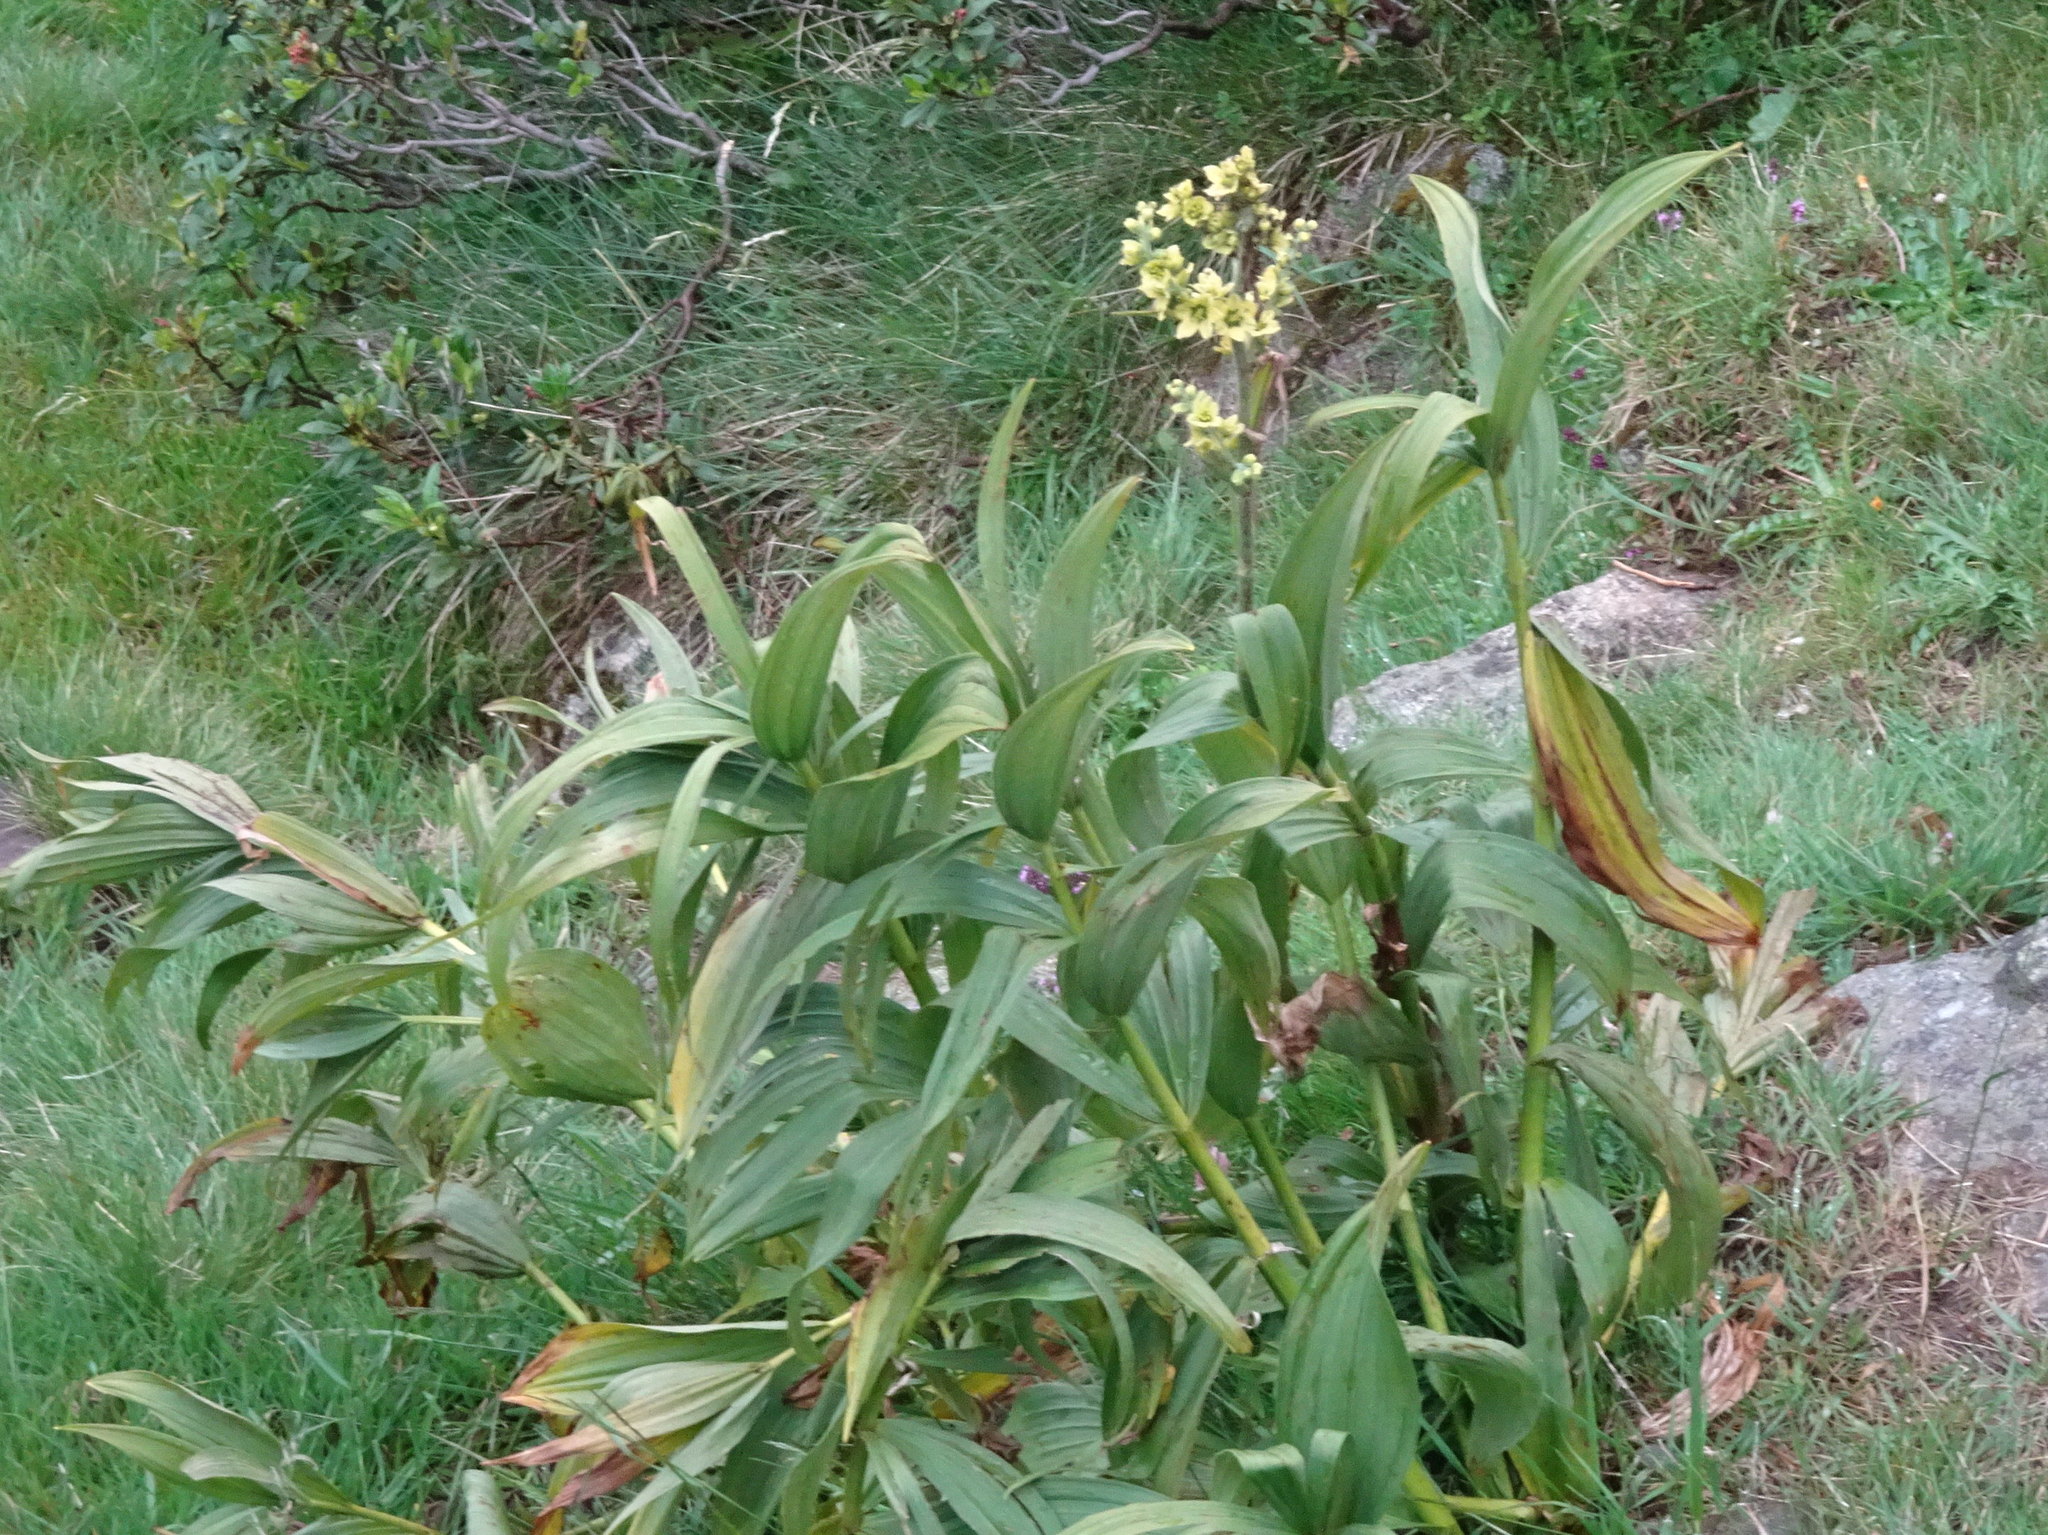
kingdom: Plantae
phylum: Tracheophyta
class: Liliopsida
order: Liliales
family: Melanthiaceae
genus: Veratrum
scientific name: Veratrum album
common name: White veratrum
